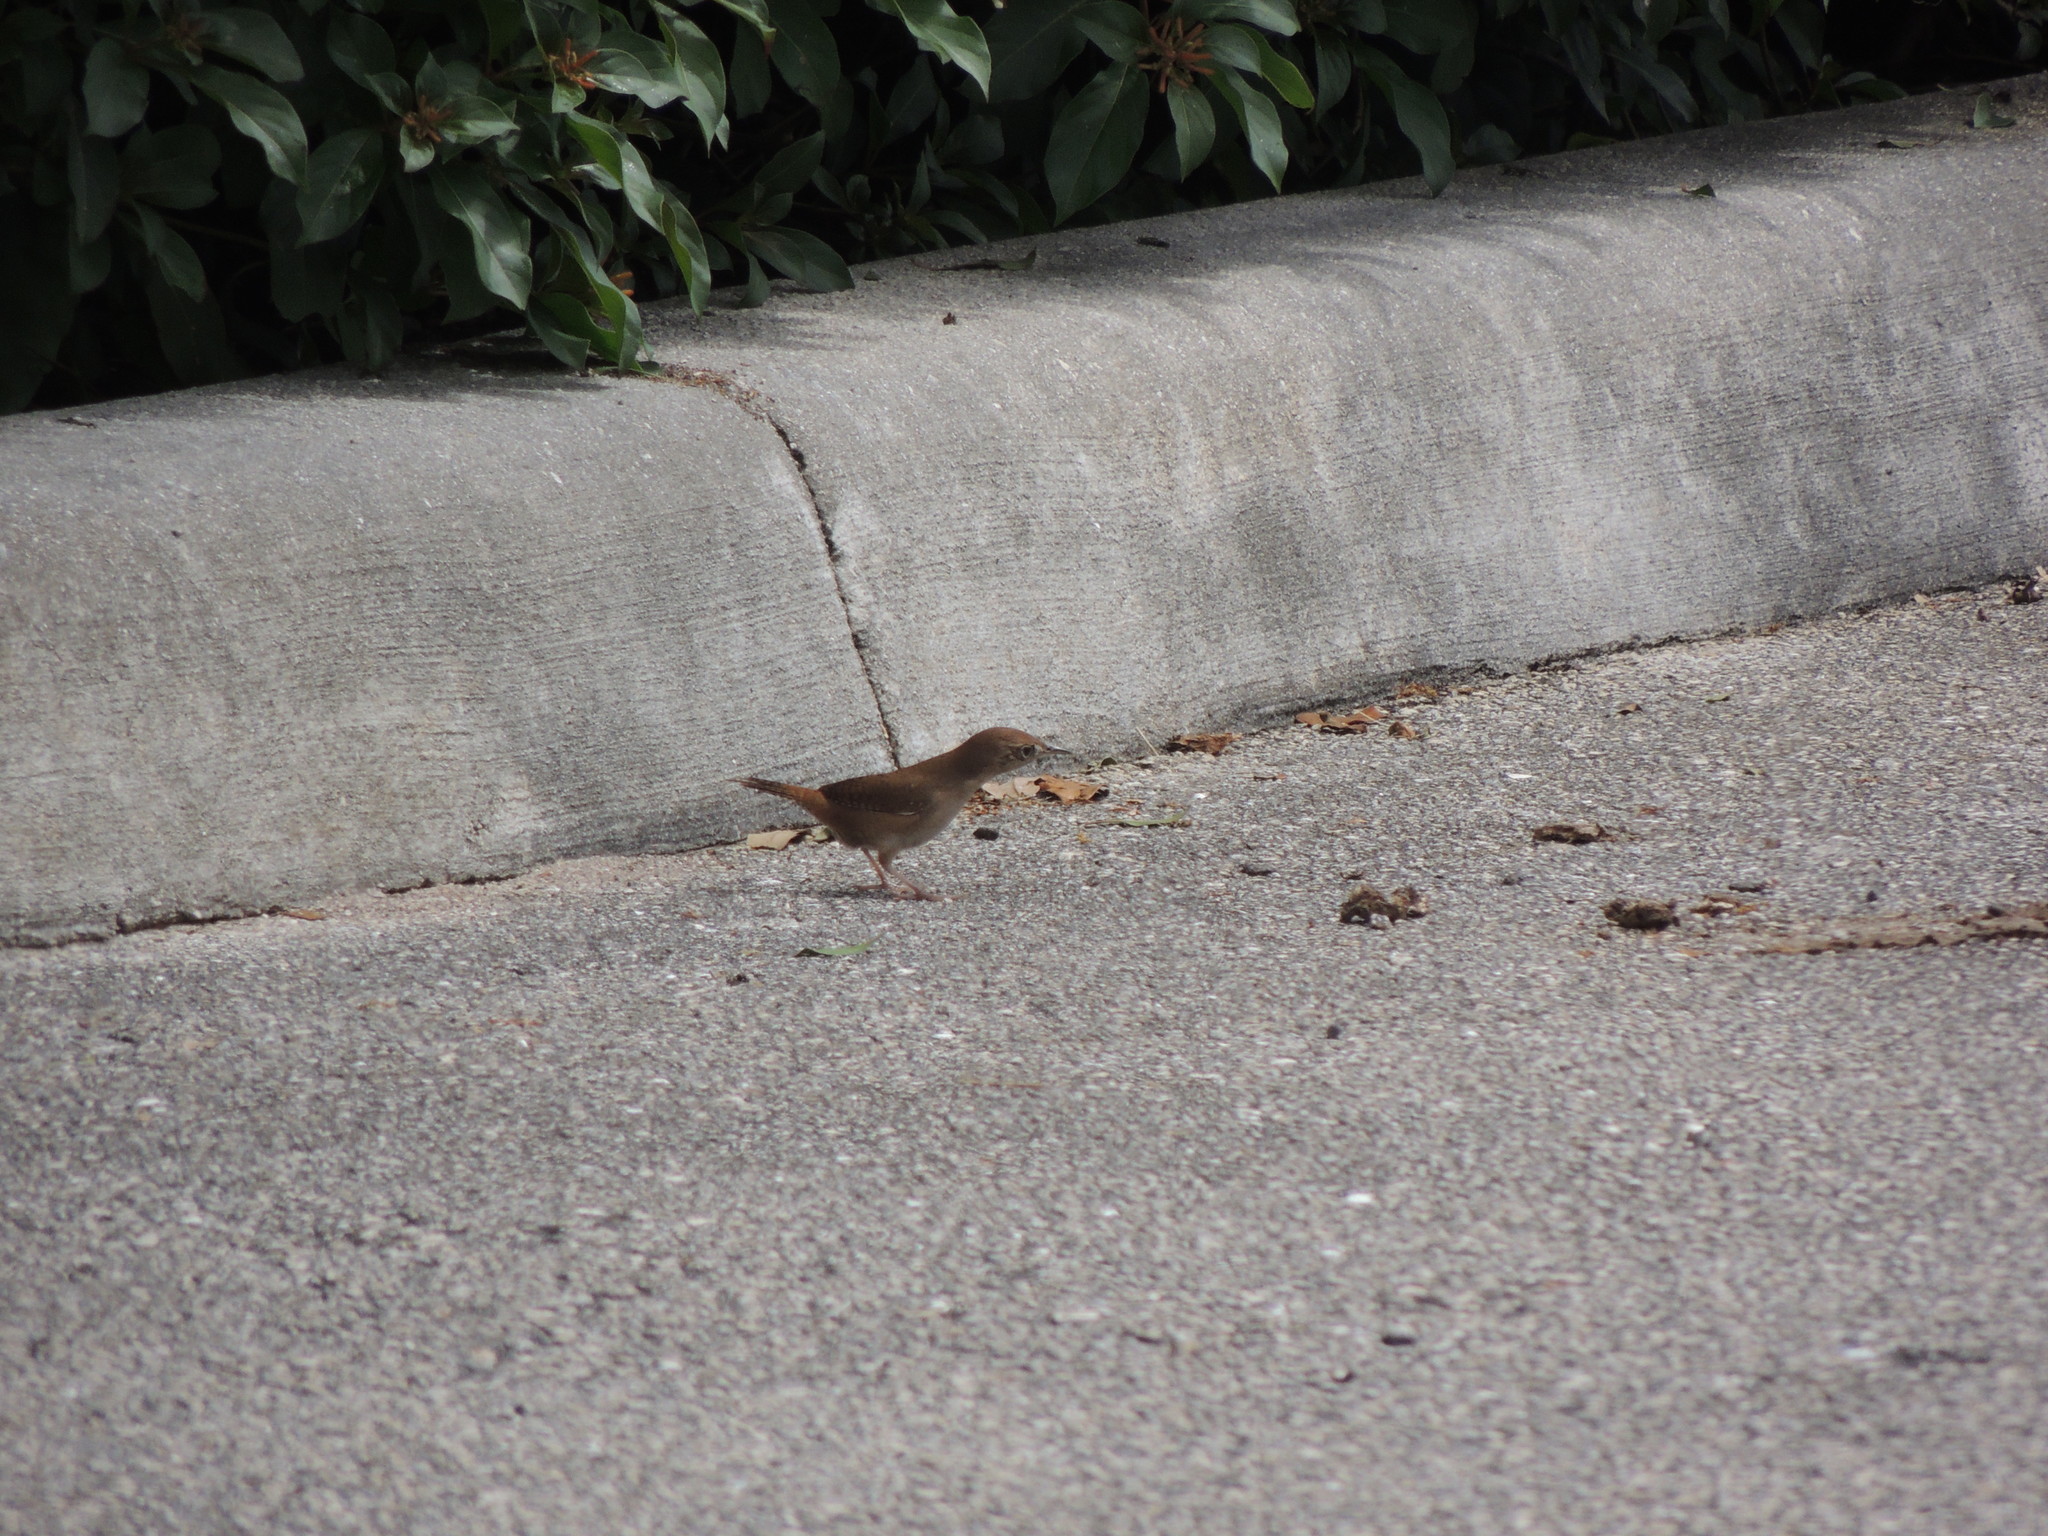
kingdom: Animalia
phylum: Chordata
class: Aves
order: Passeriformes
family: Troglodytidae
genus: Troglodytes
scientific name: Troglodytes aedon
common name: House wren
